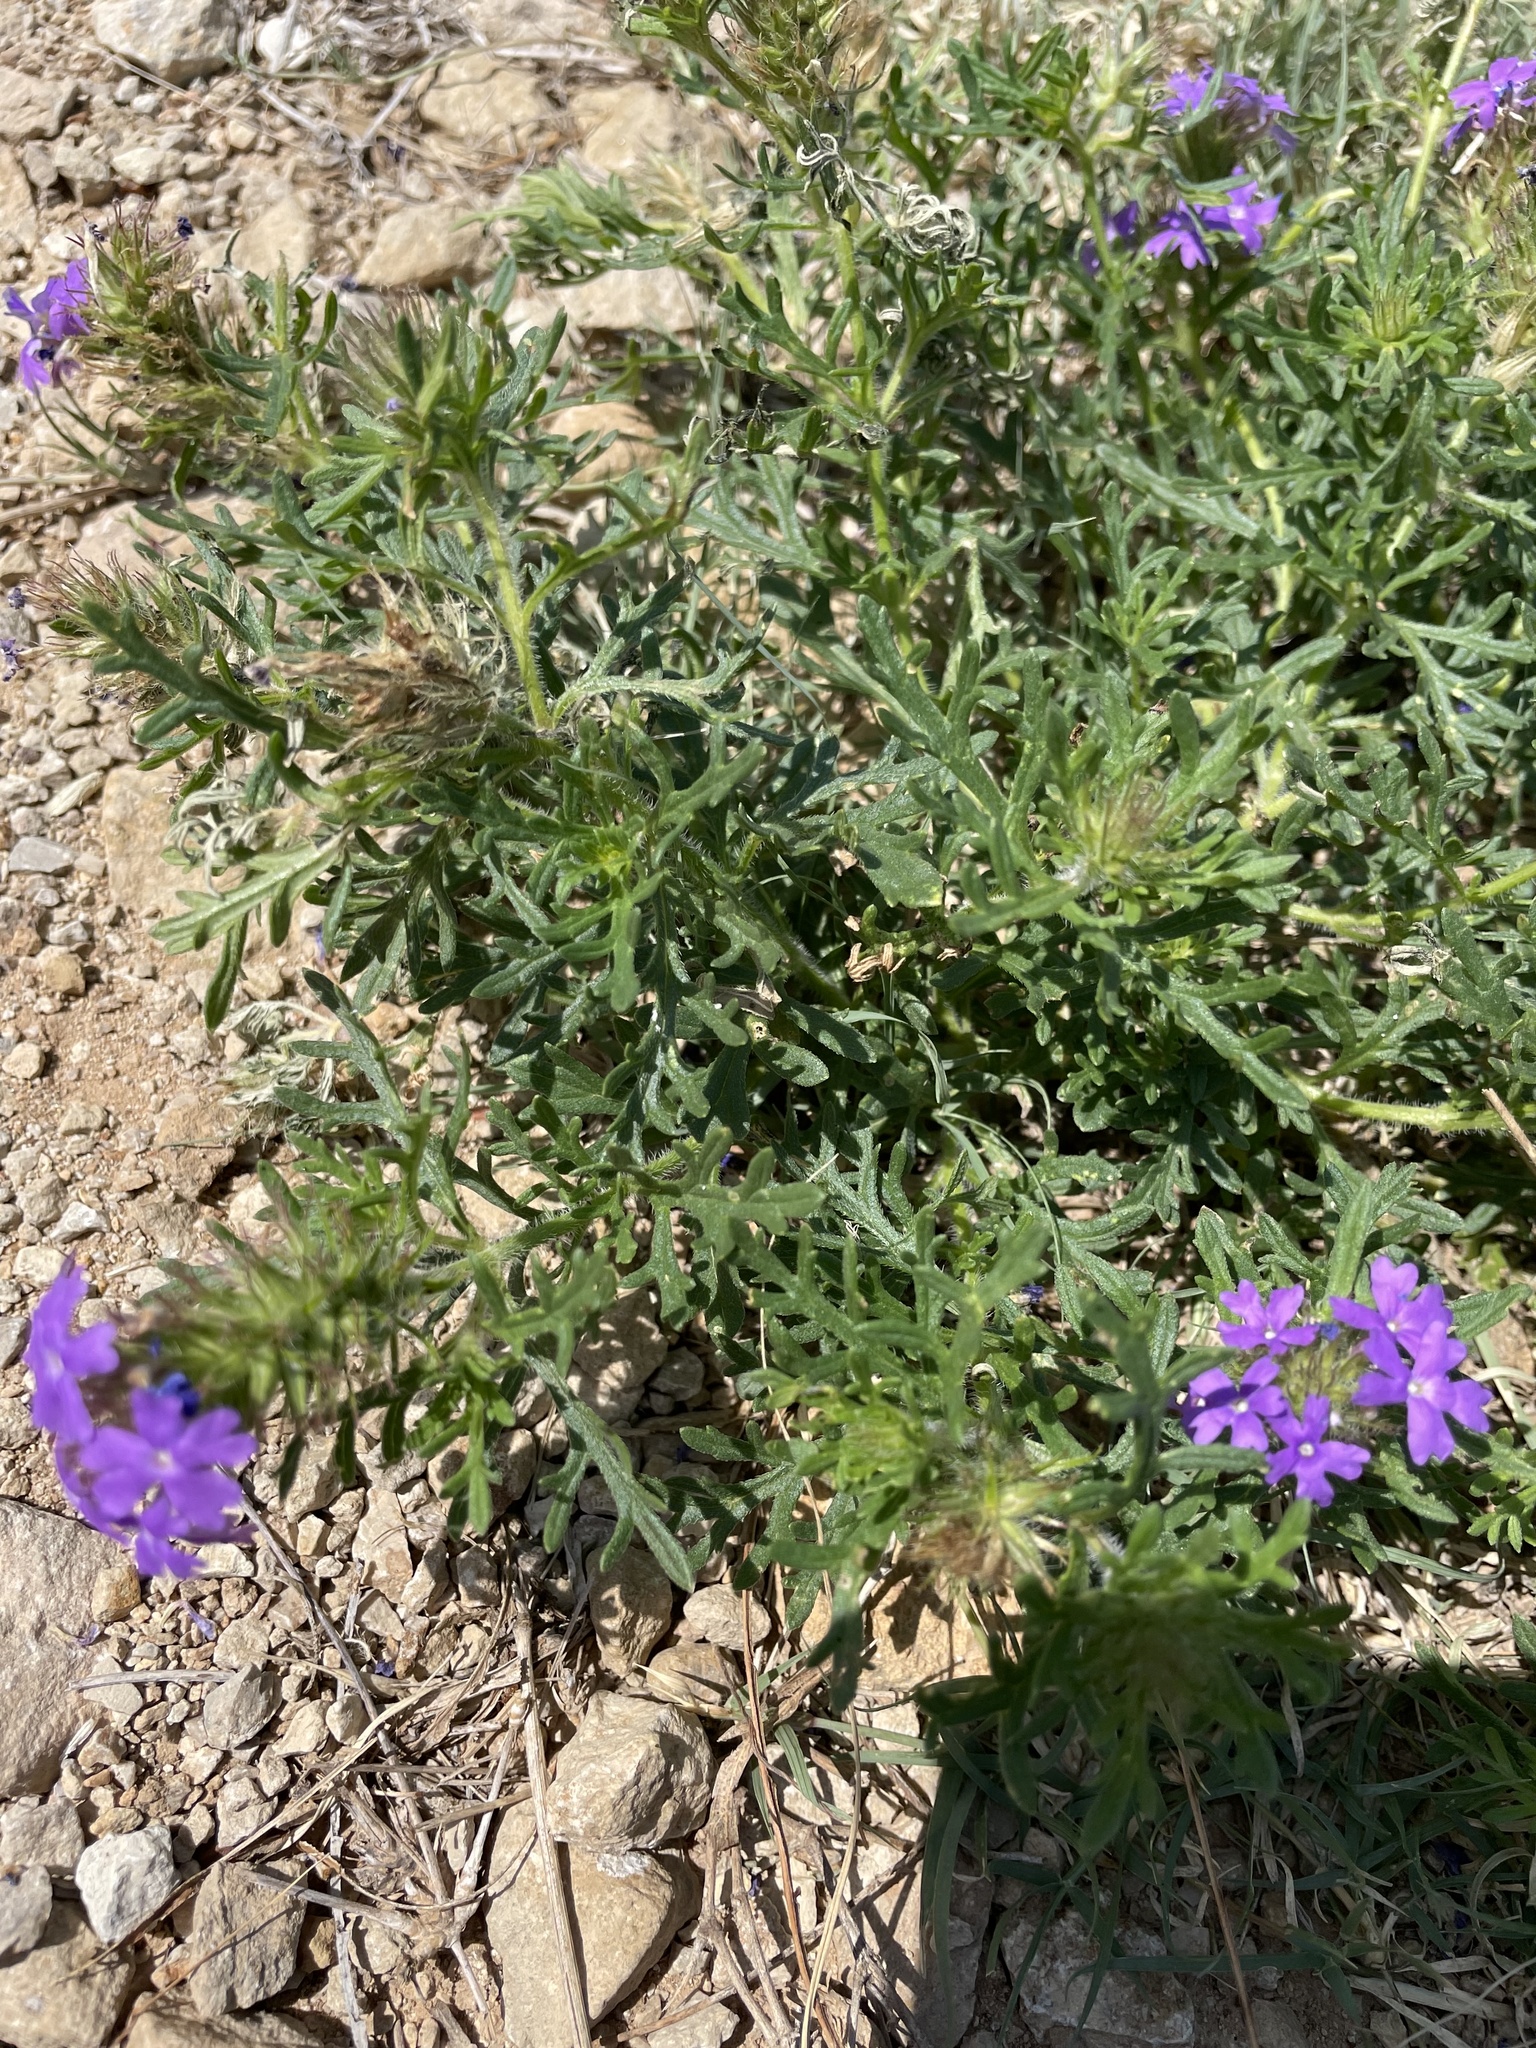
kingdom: Plantae
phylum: Tracheophyta
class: Magnoliopsida
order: Lamiales
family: Verbenaceae
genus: Verbena
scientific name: Verbena bipinnatifida
